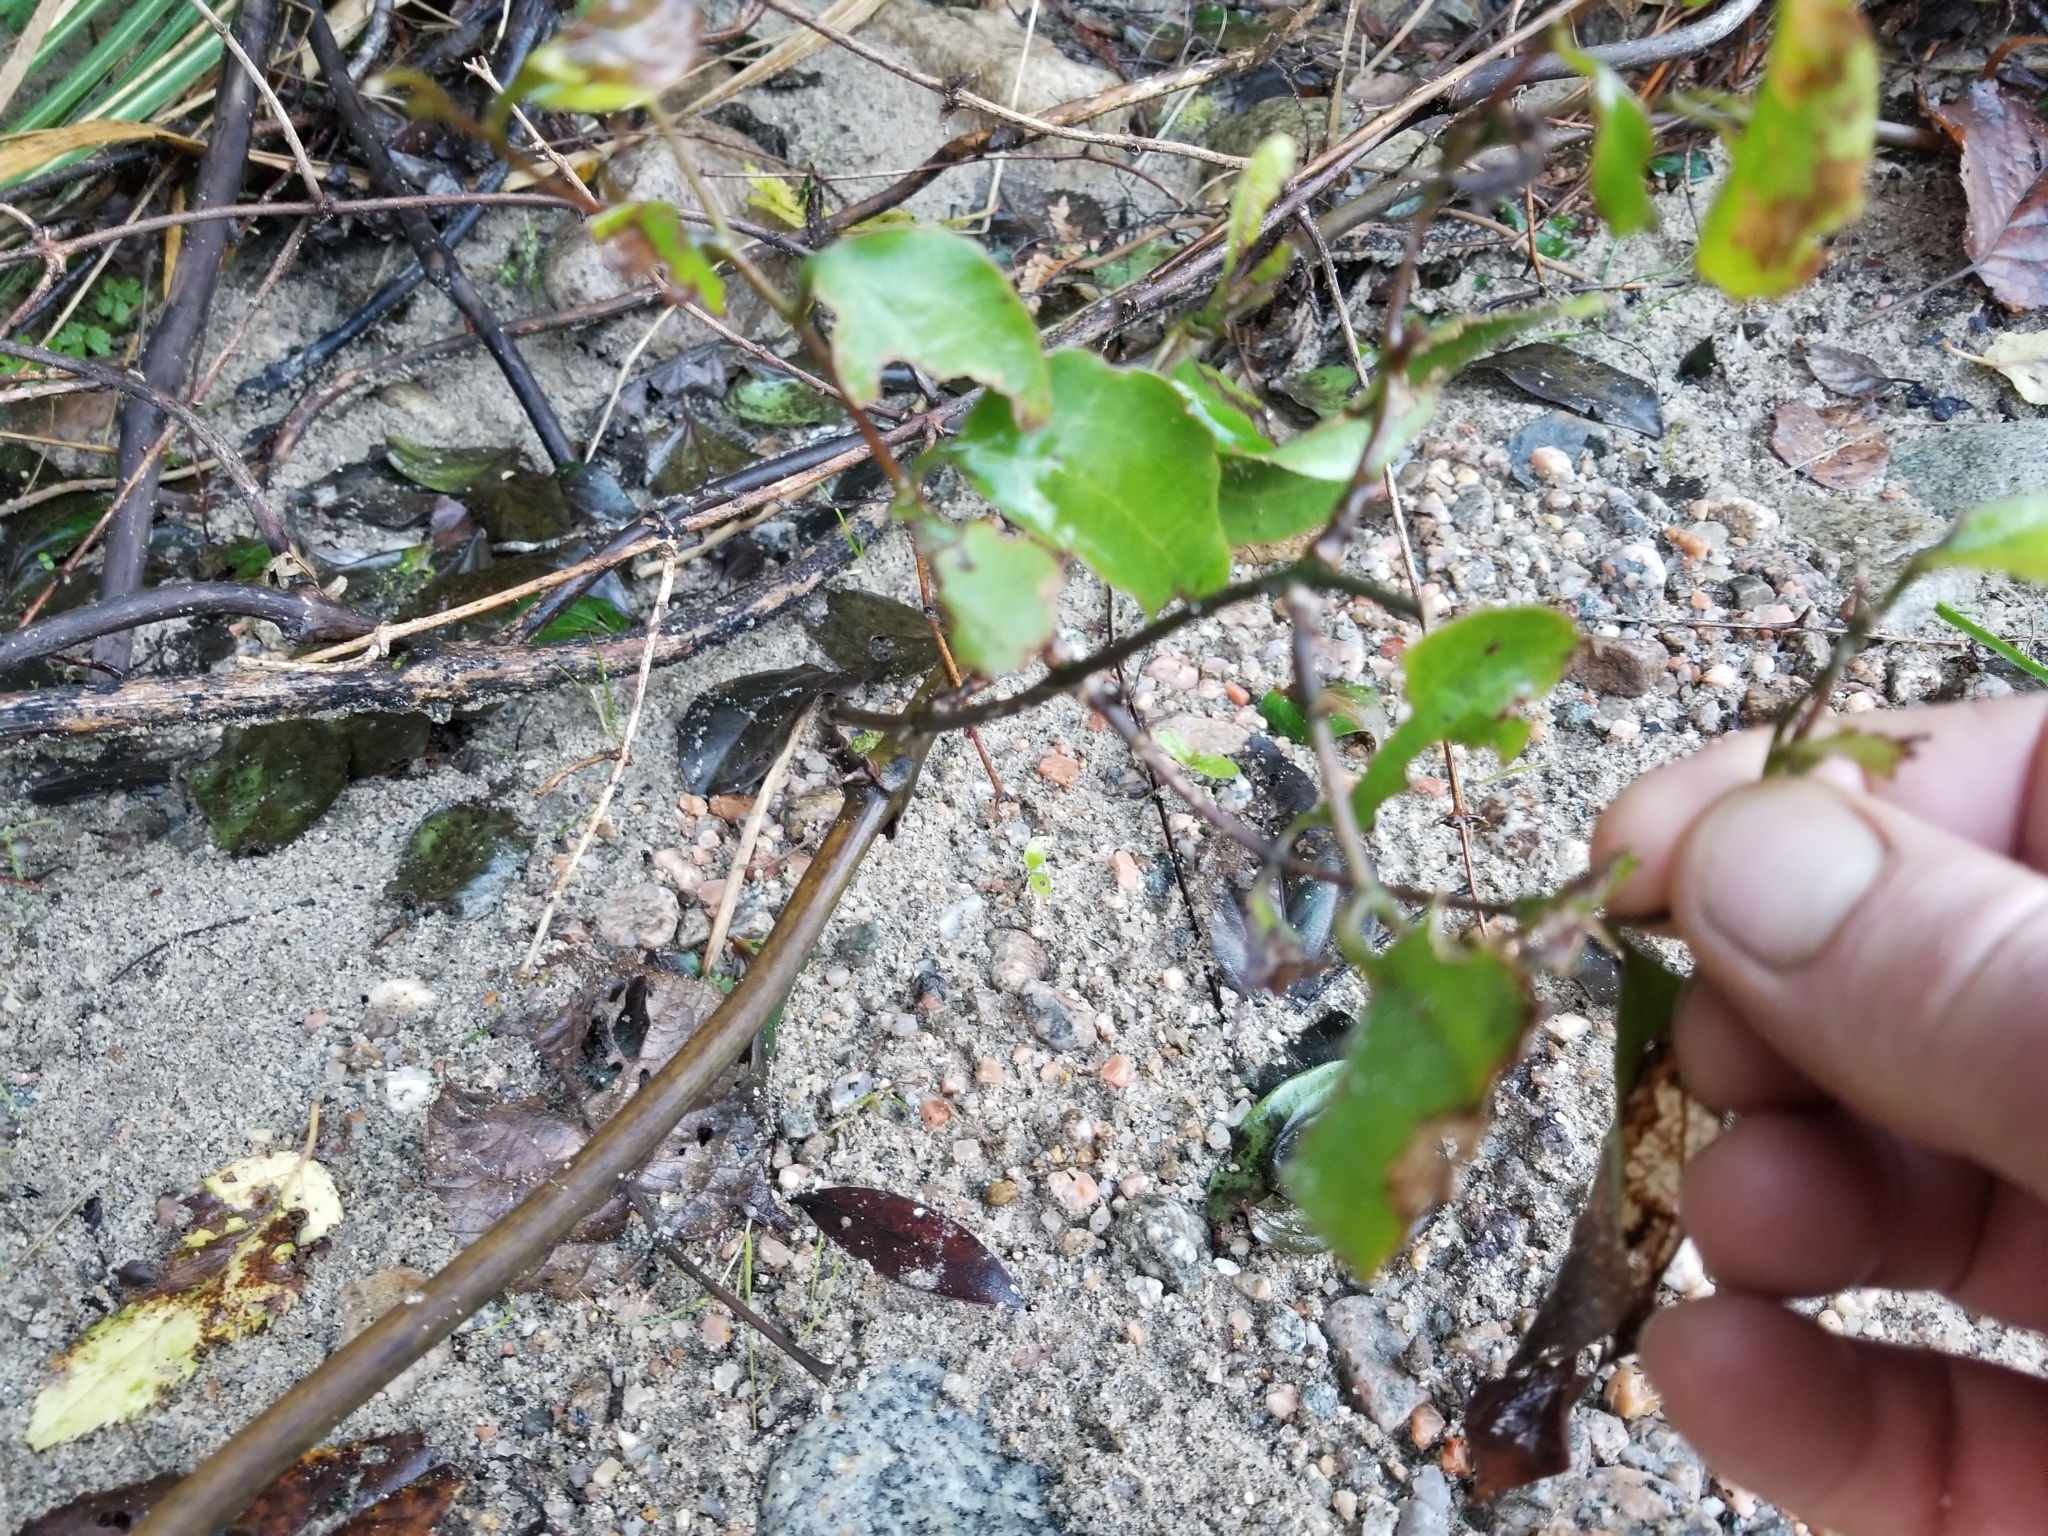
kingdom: Plantae
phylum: Tracheophyta
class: Liliopsida
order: Liliales
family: Ripogonaceae
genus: Ripogonum
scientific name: Ripogonum scandens
